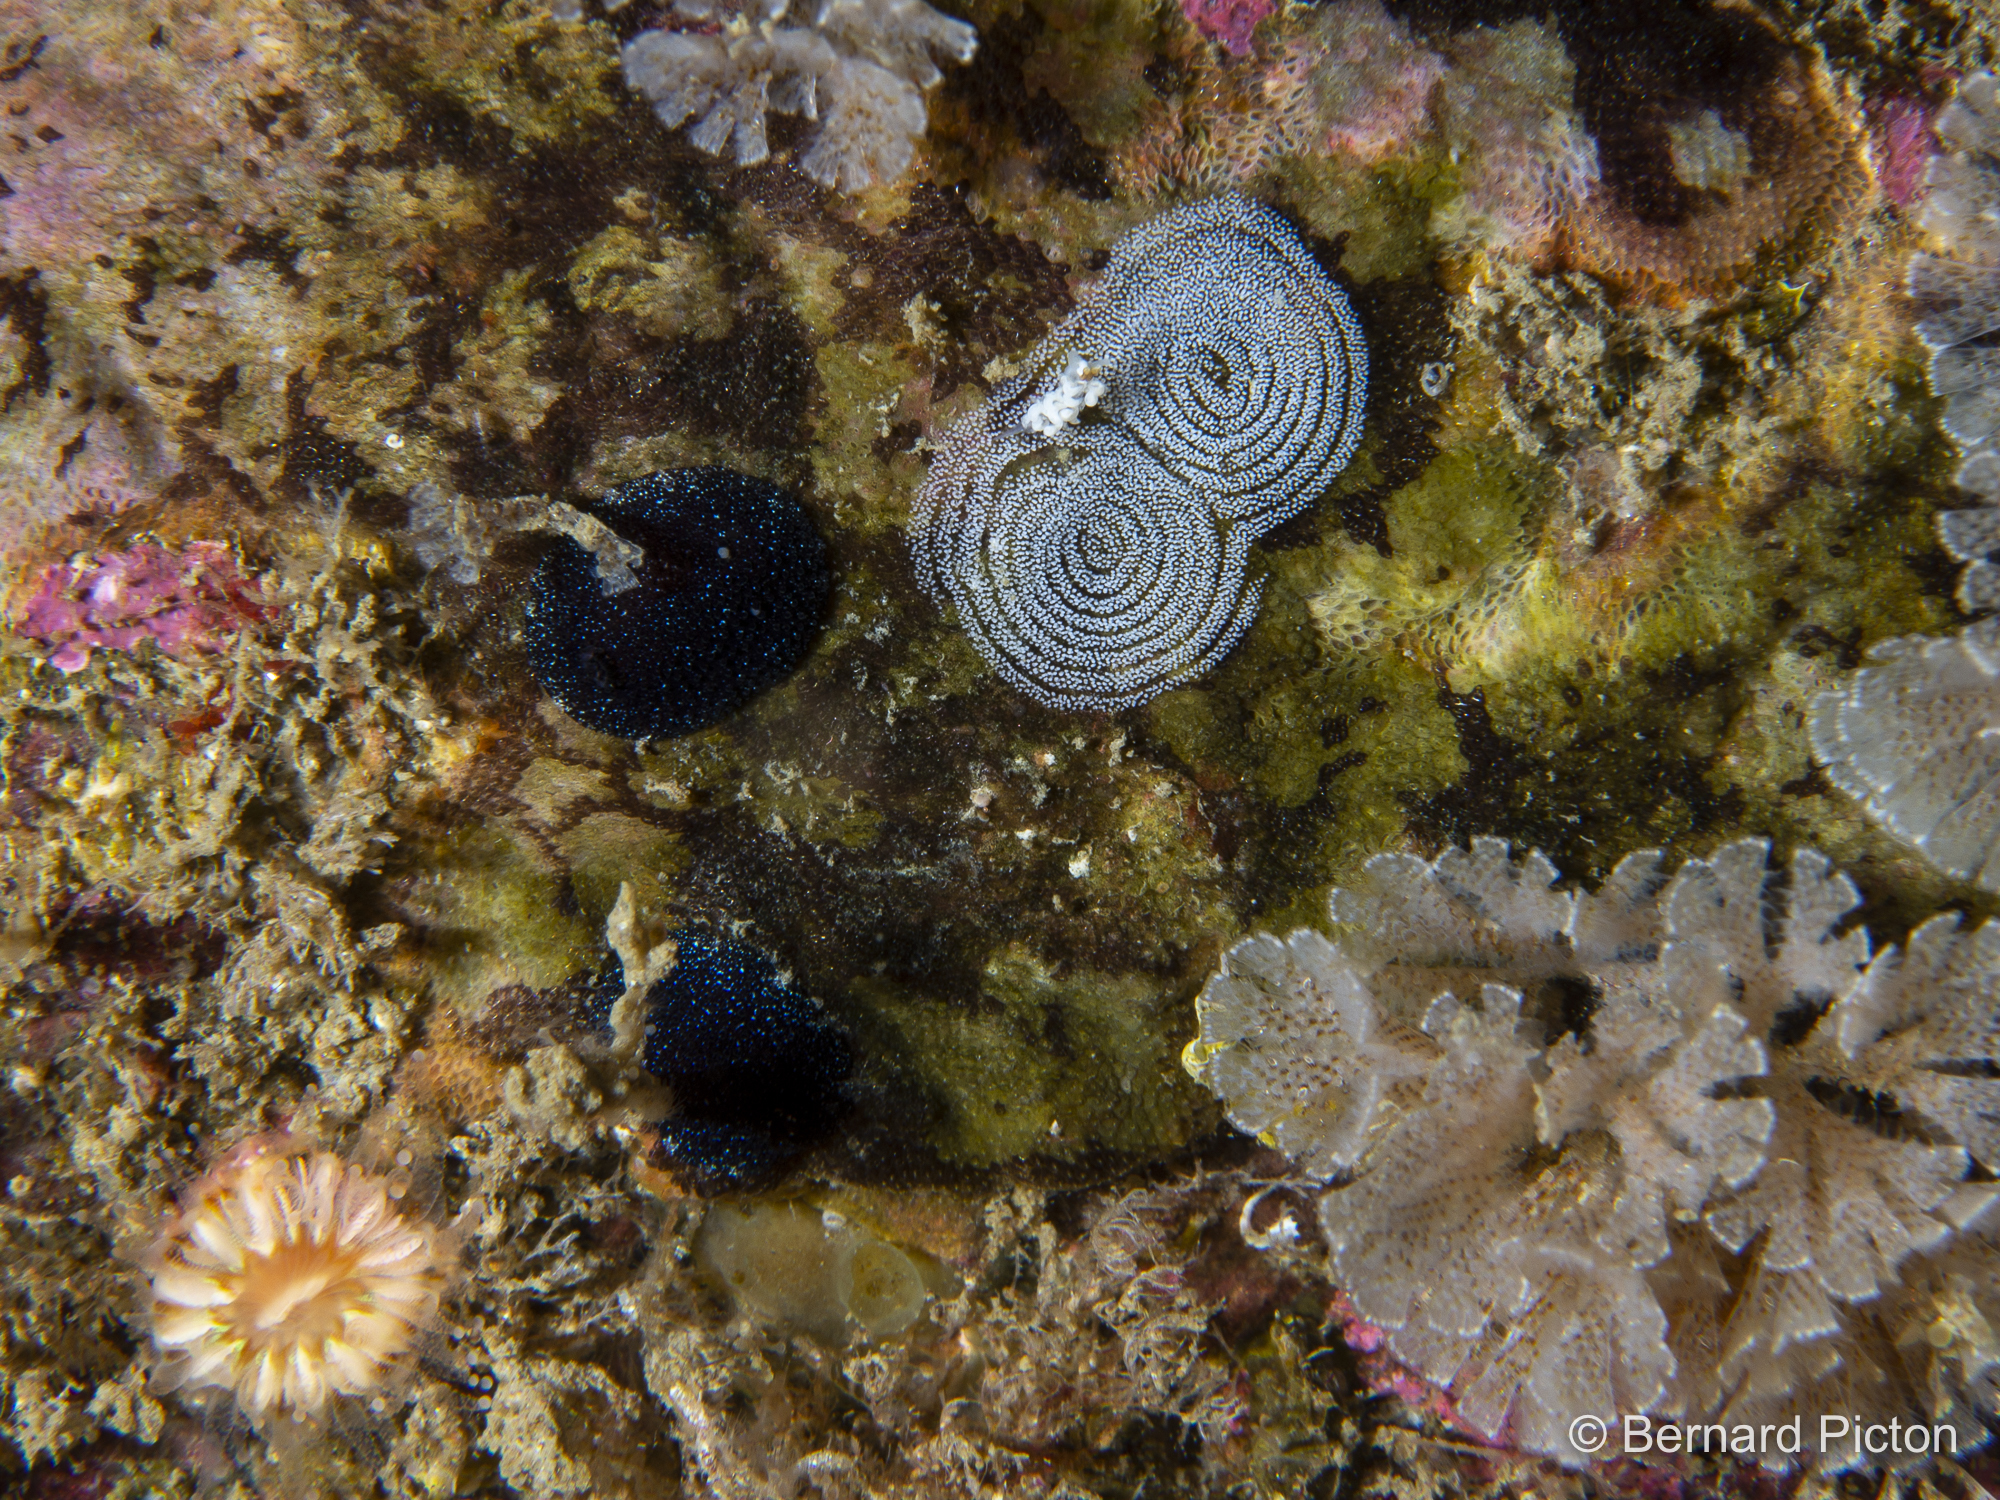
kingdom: Animalia
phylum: Mollusca
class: Gastropoda
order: Nudibranchia
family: Onchidorididae
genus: Atalodoris
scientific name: Atalodoris pictoni
